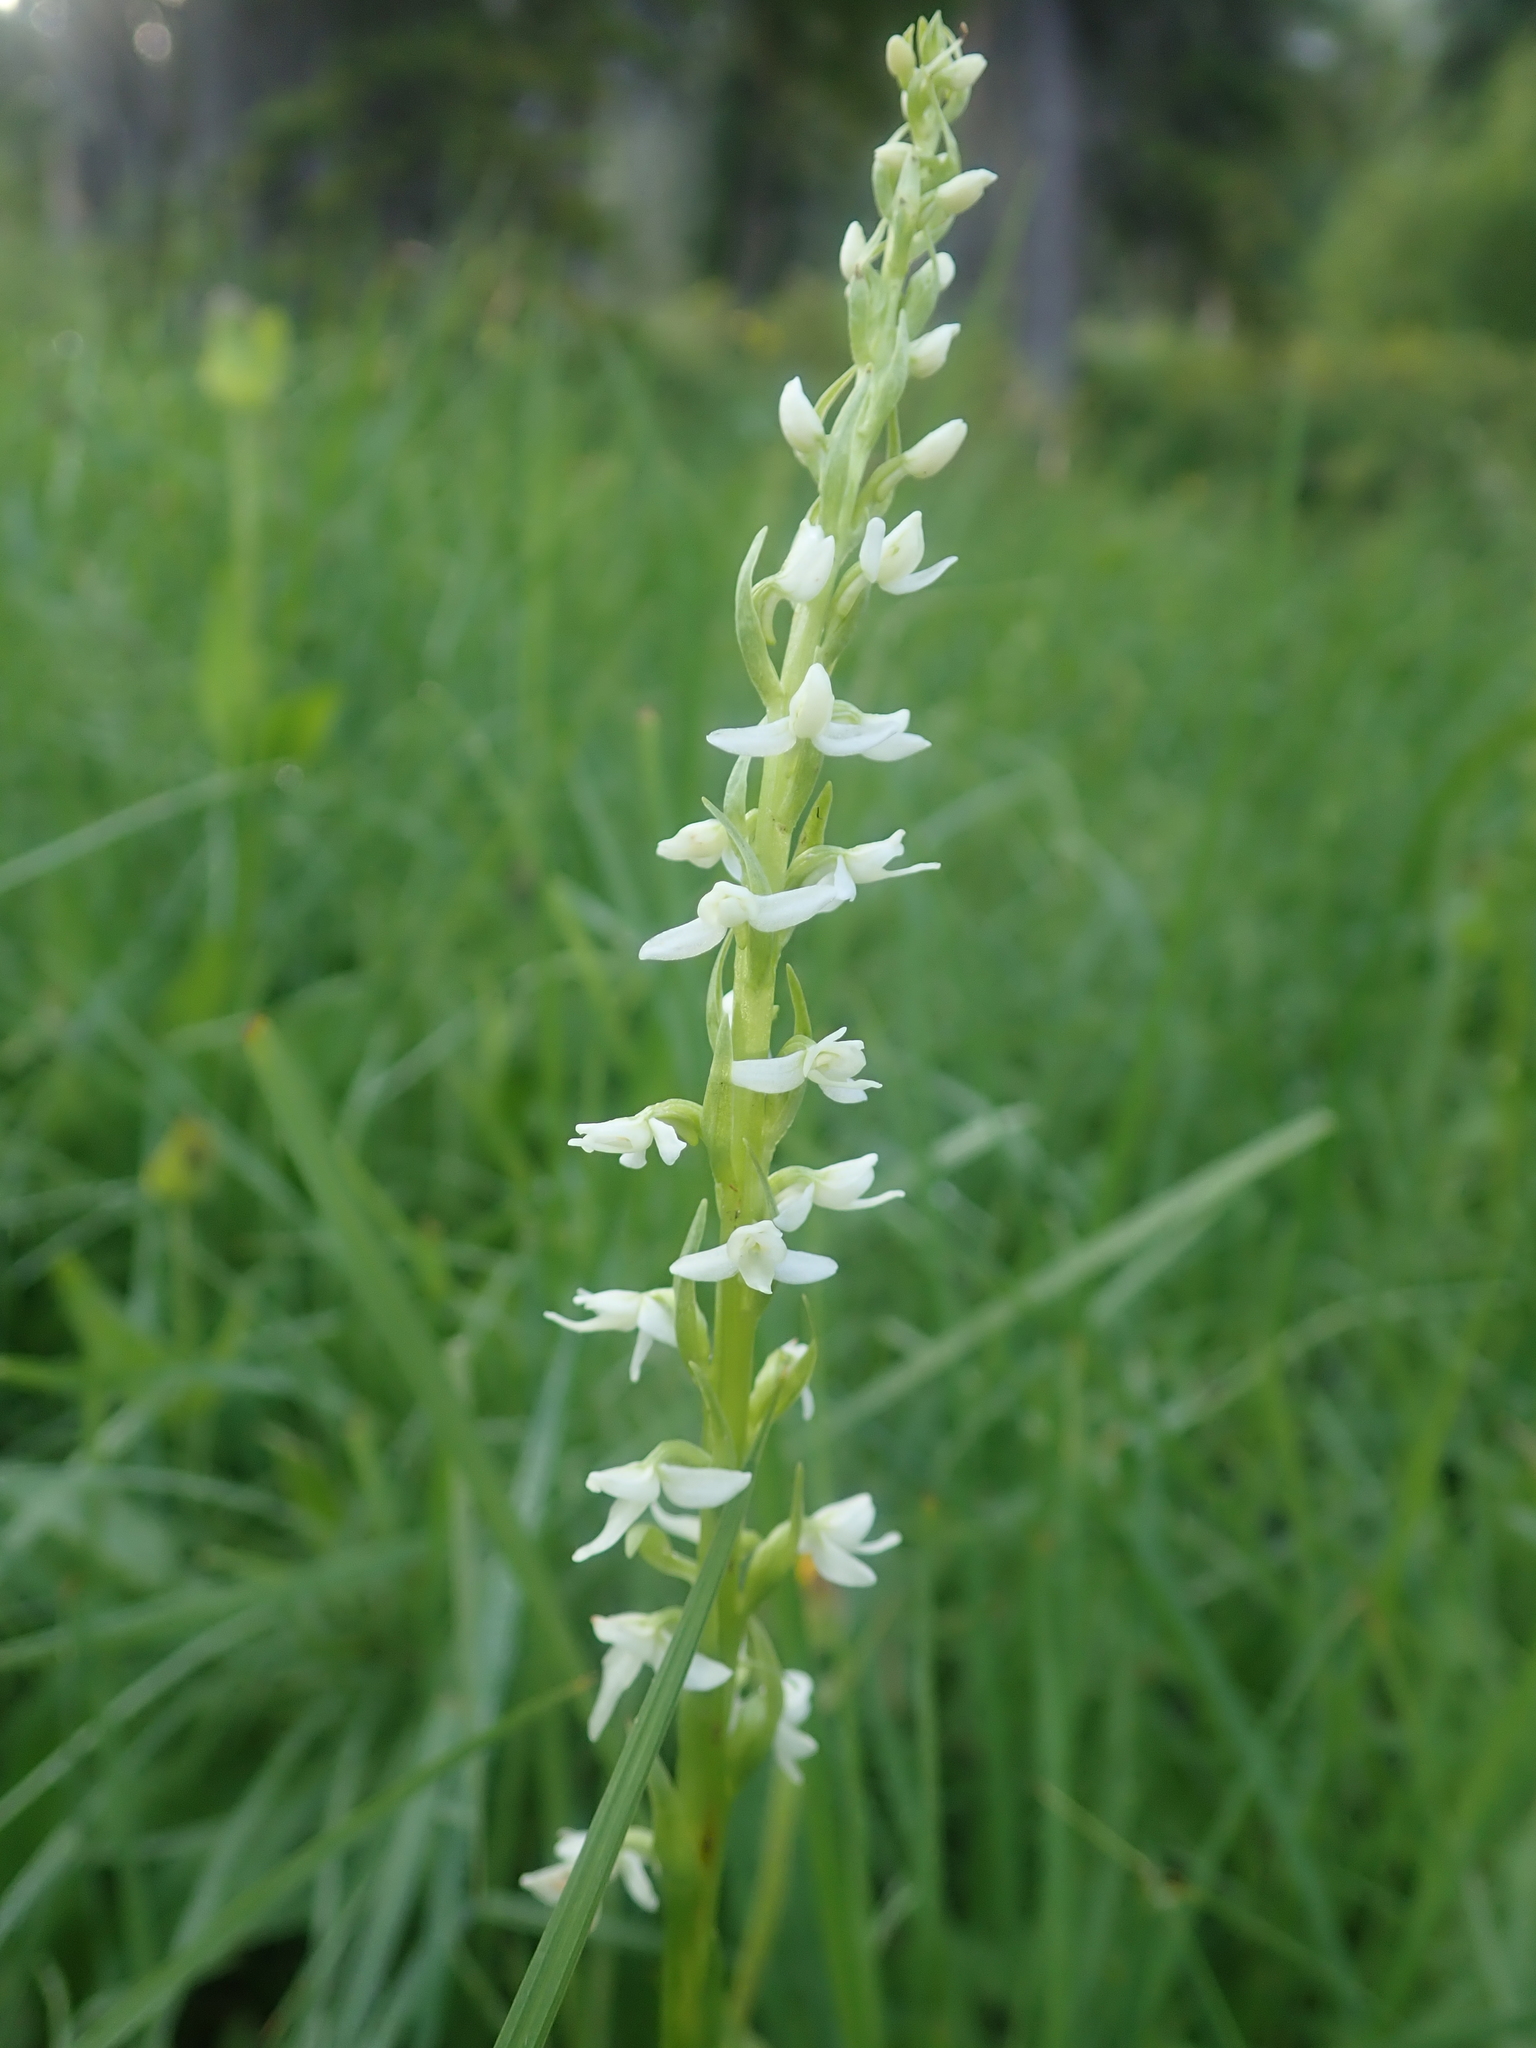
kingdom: Plantae
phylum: Tracheophyta
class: Liliopsida
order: Asparagales
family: Orchidaceae
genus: Platanthera
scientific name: Platanthera dilatata
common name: Bog candles
